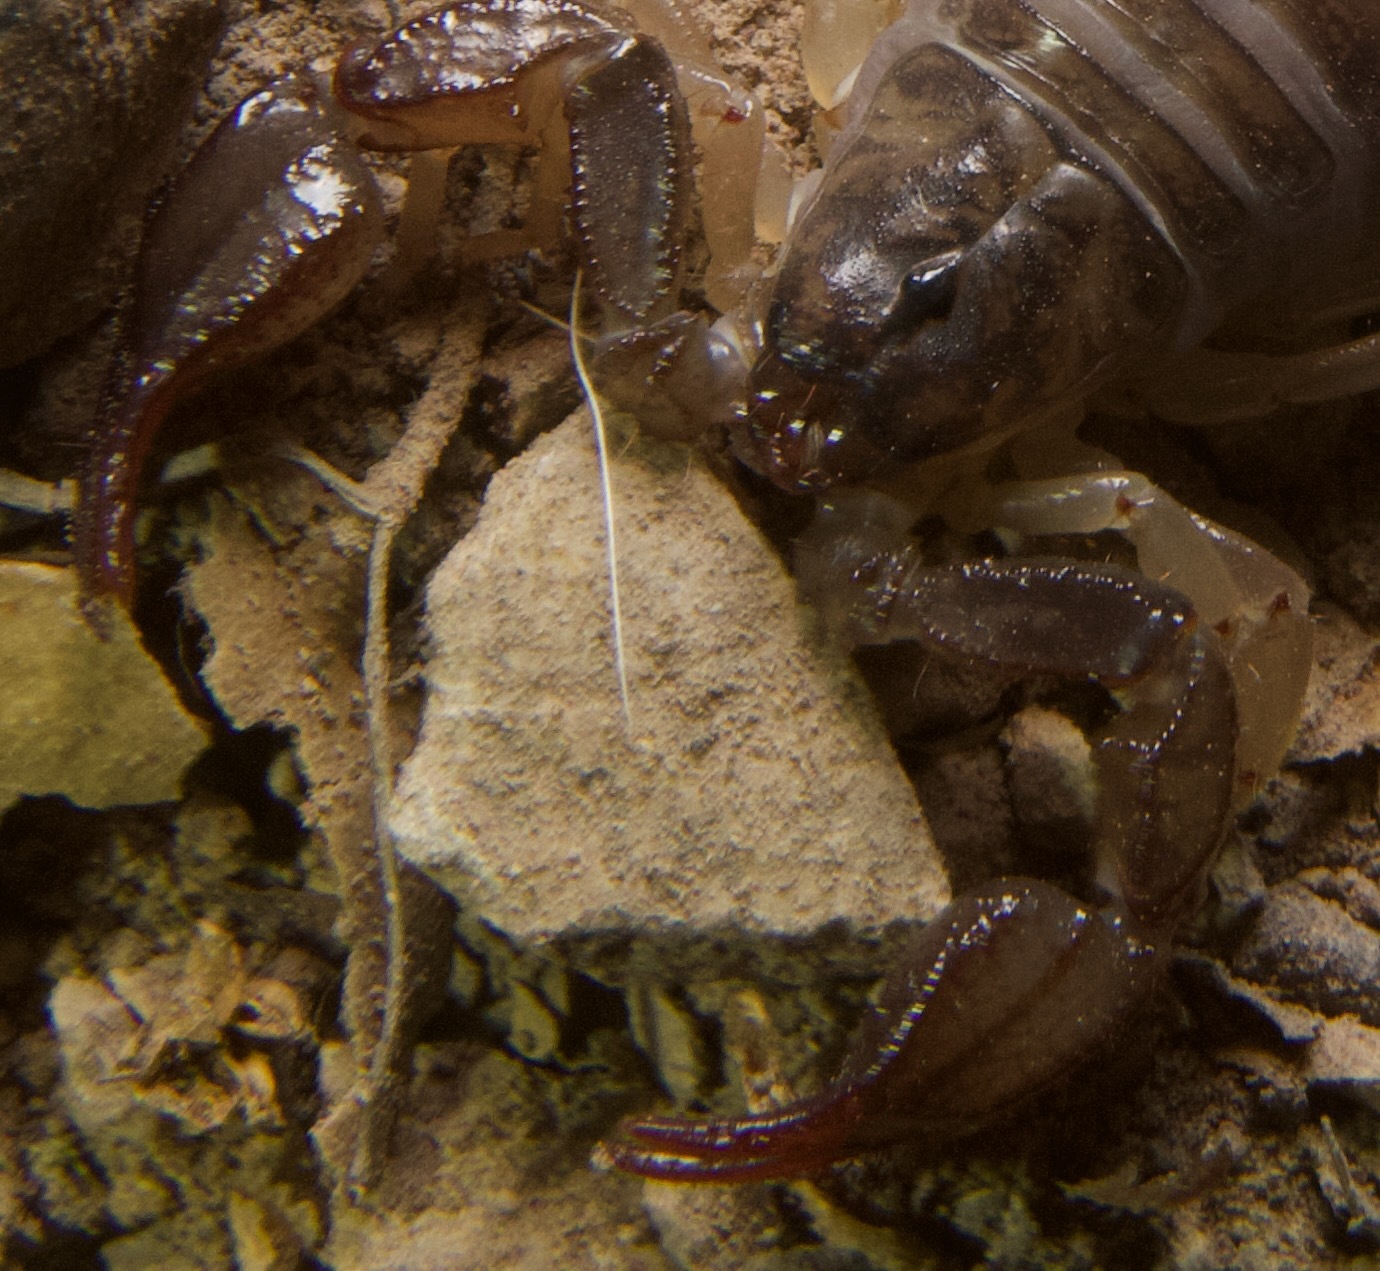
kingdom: Animalia
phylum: Arthropoda
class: Arachnida
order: Scorpiones
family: Chactidae
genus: Uroctonus
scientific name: Uroctonus mordax
